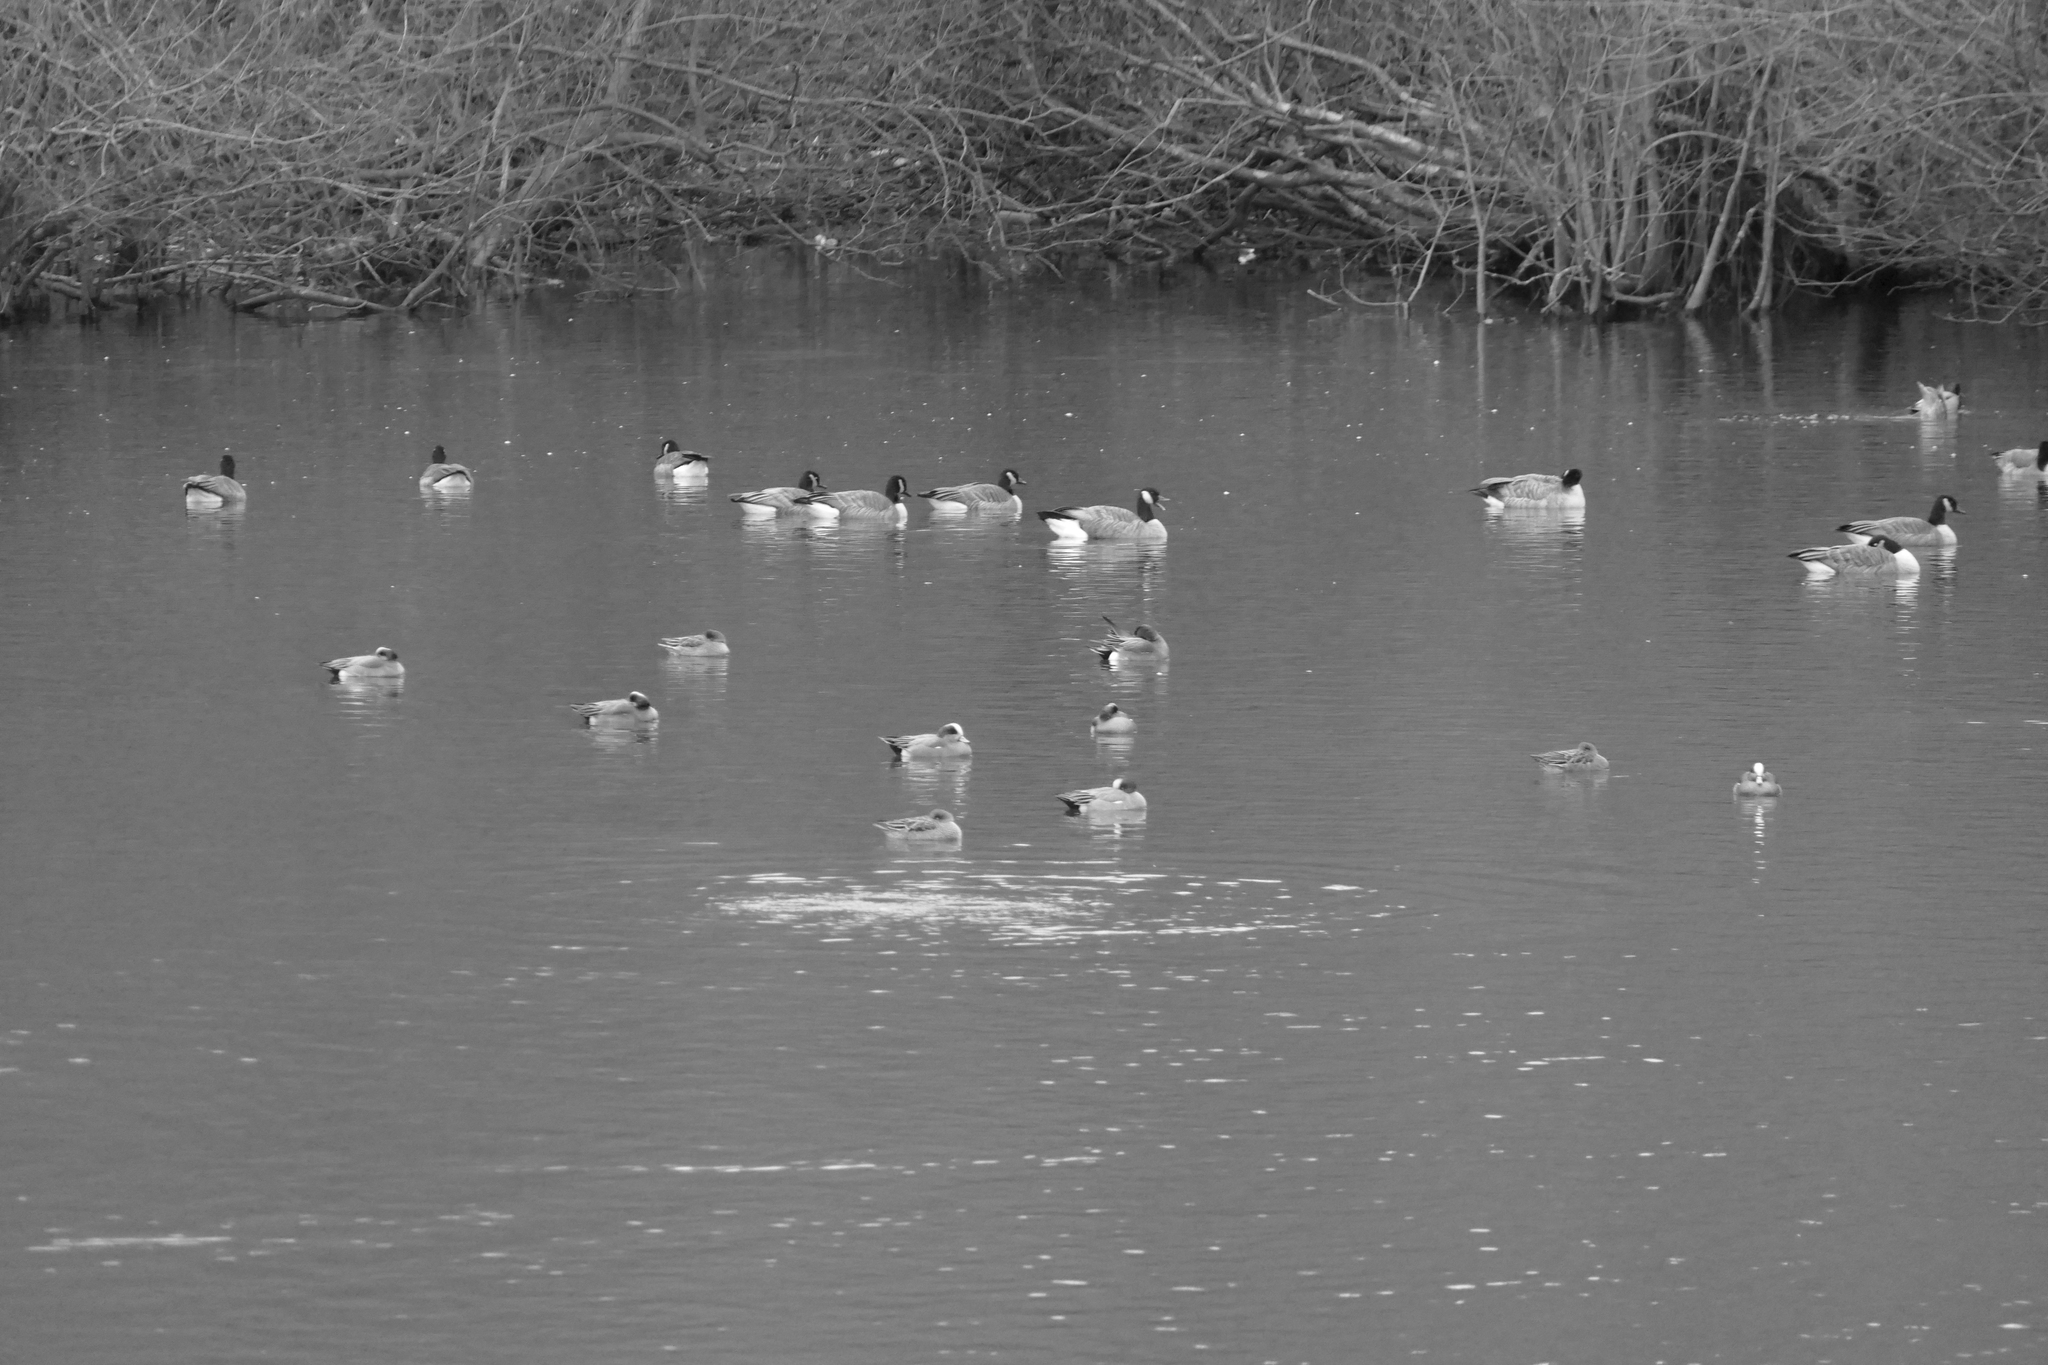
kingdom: Animalia
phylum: Chordata
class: Aves
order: Anseriformes
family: Anatidae
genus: Mareca
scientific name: Mareca americana
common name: American wigeon
